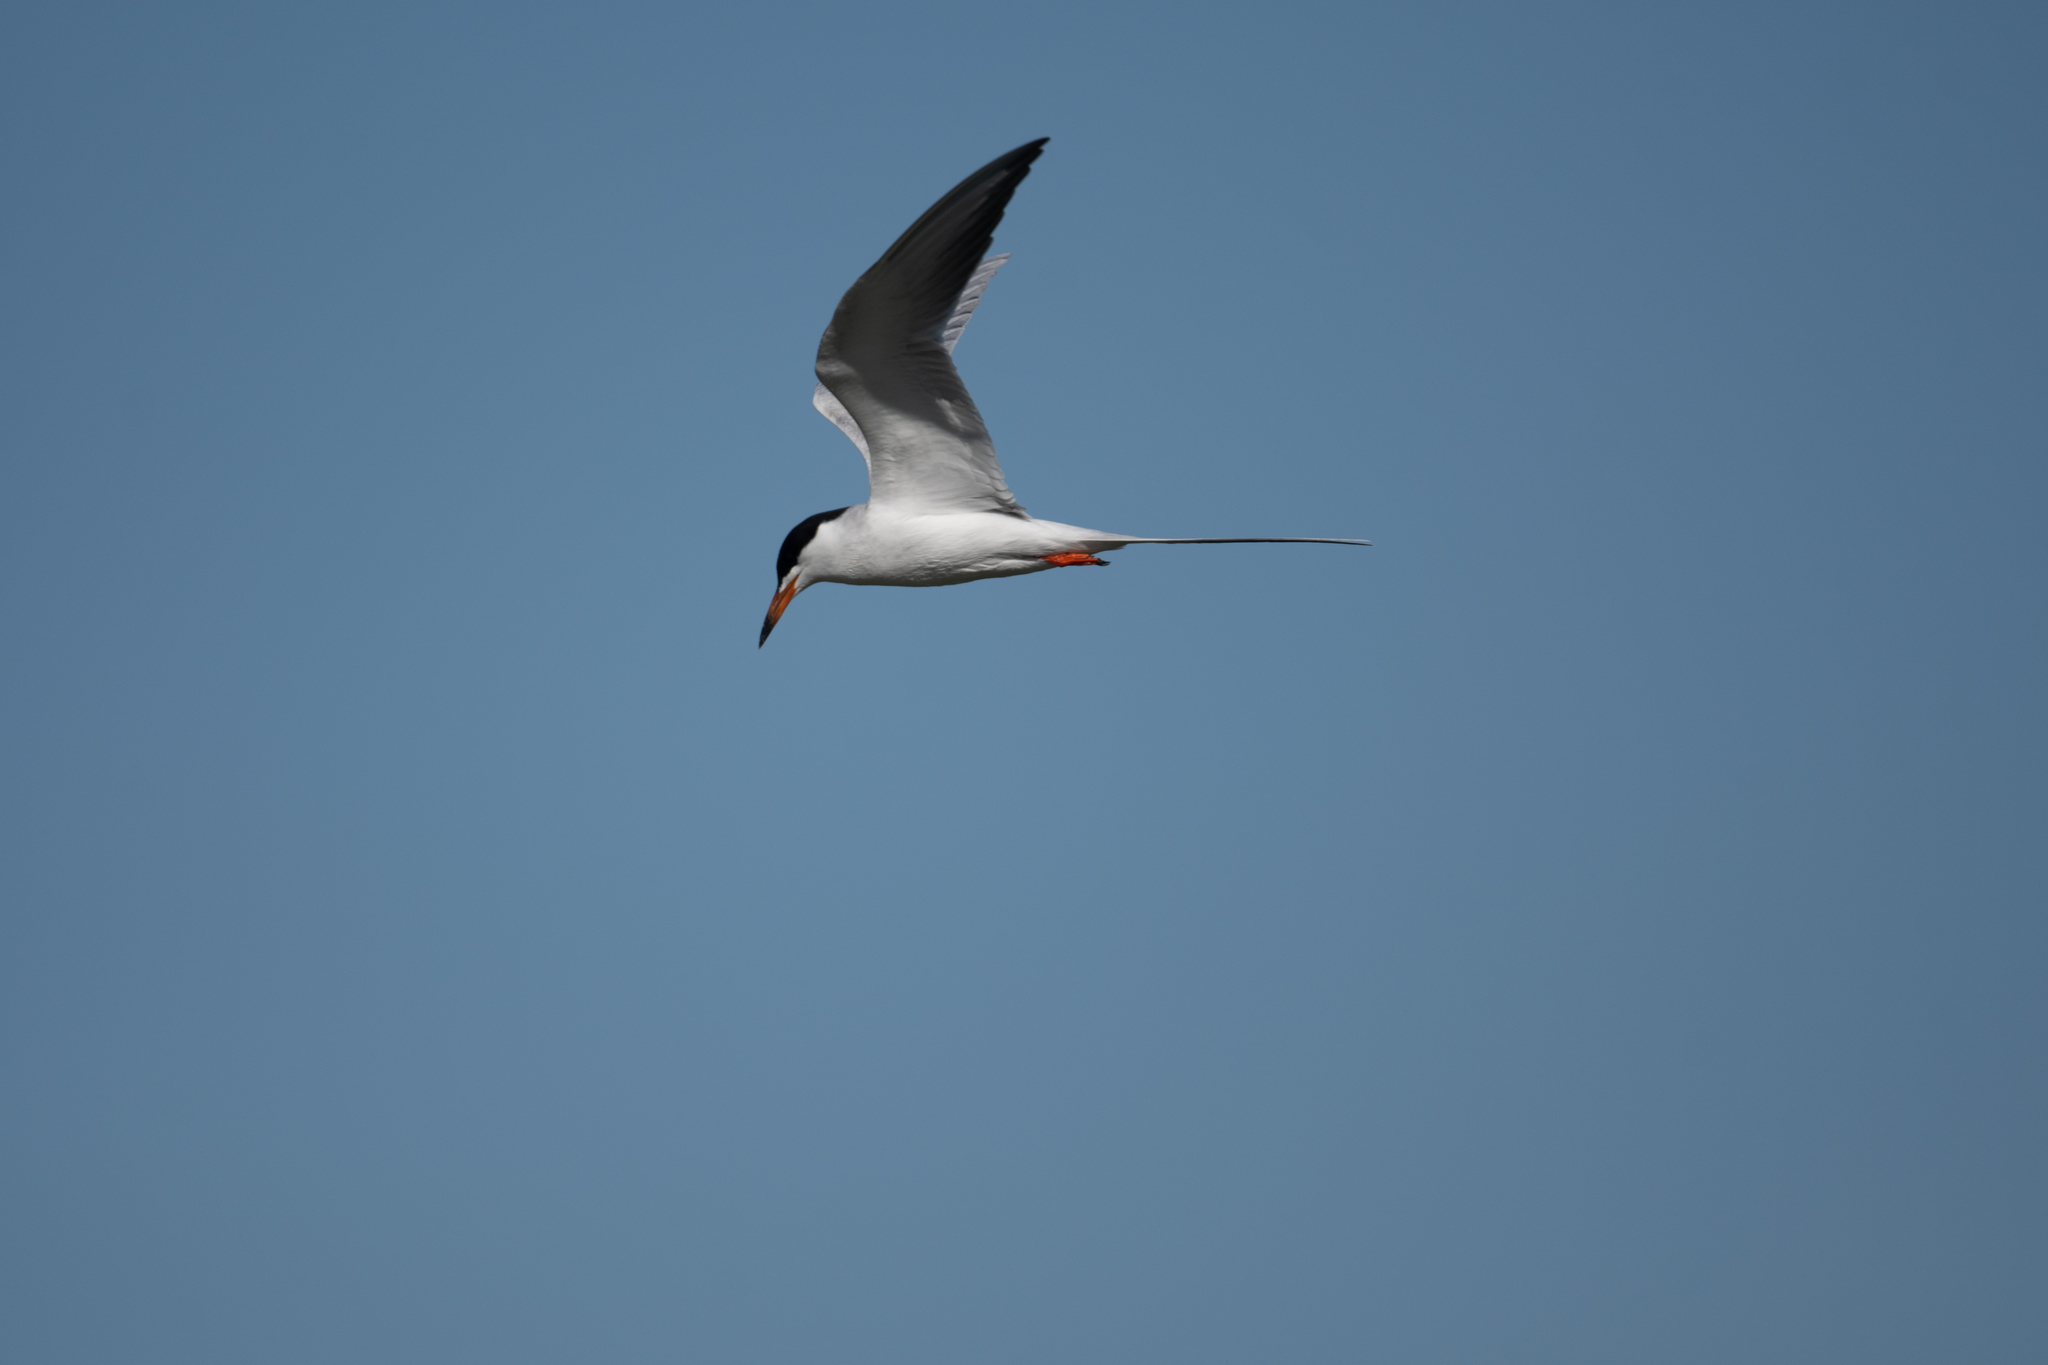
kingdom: Animalia
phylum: Chordata
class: Aves
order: Charadriiformes
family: Laridae
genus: Sterna
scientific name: Sterna forsteri
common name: Forster's tern
